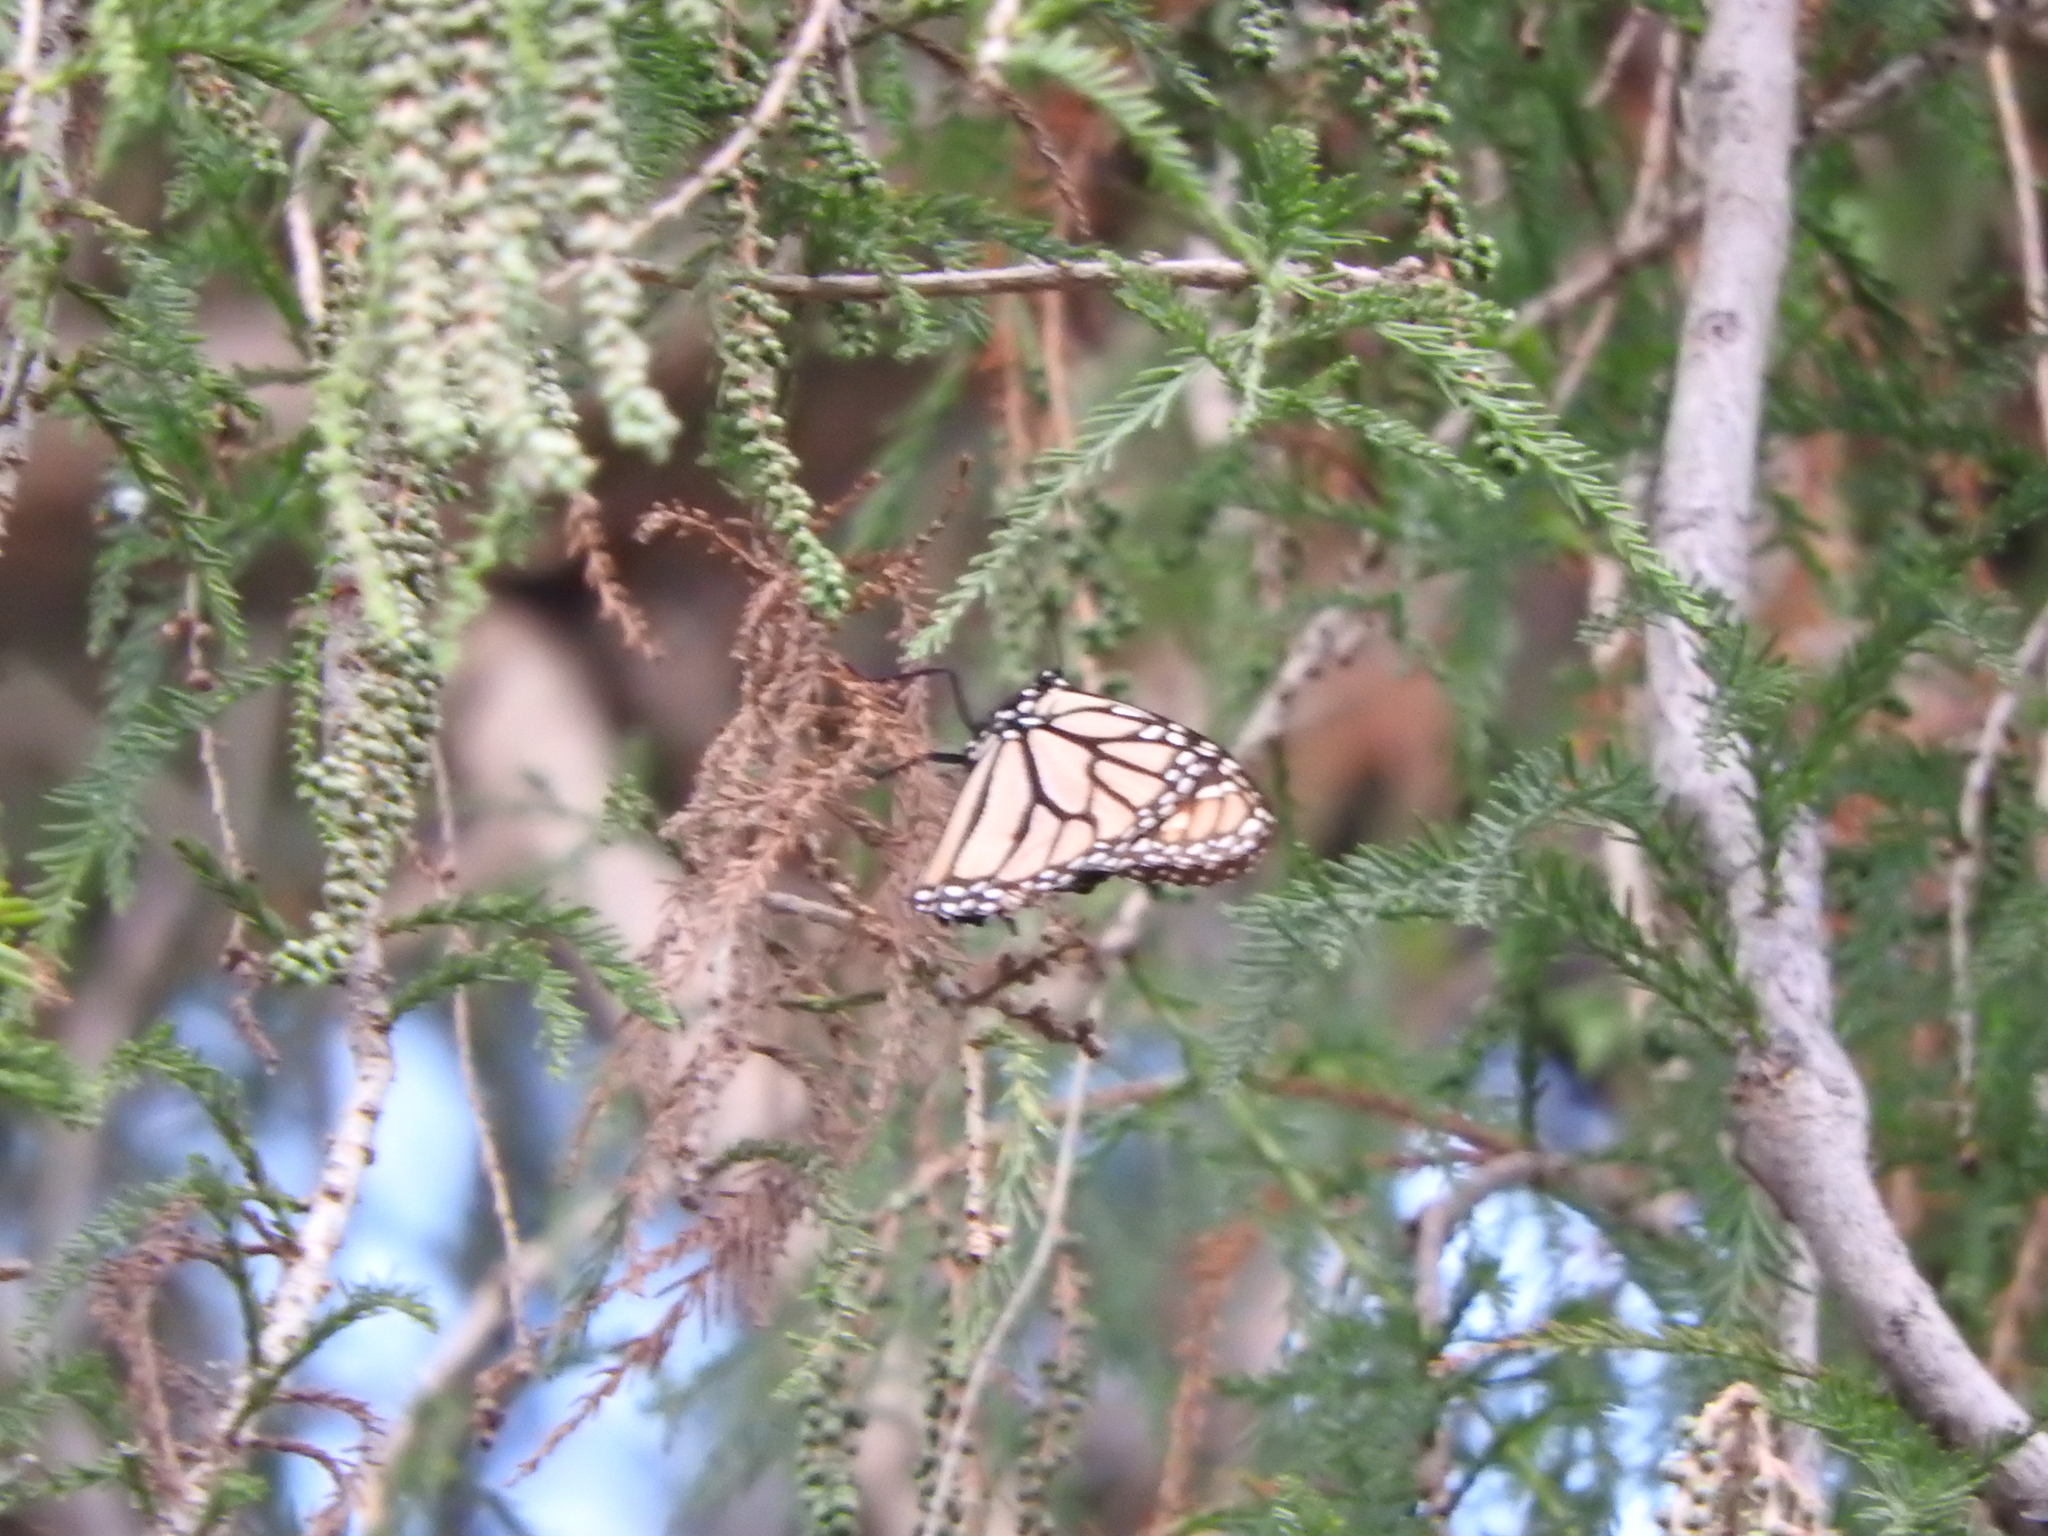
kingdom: Animalia
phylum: Arthropoda
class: Insecta
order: Lepidoptera
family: Nymphalidae
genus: Danaus
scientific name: Danaus plexippus
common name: Monarch
